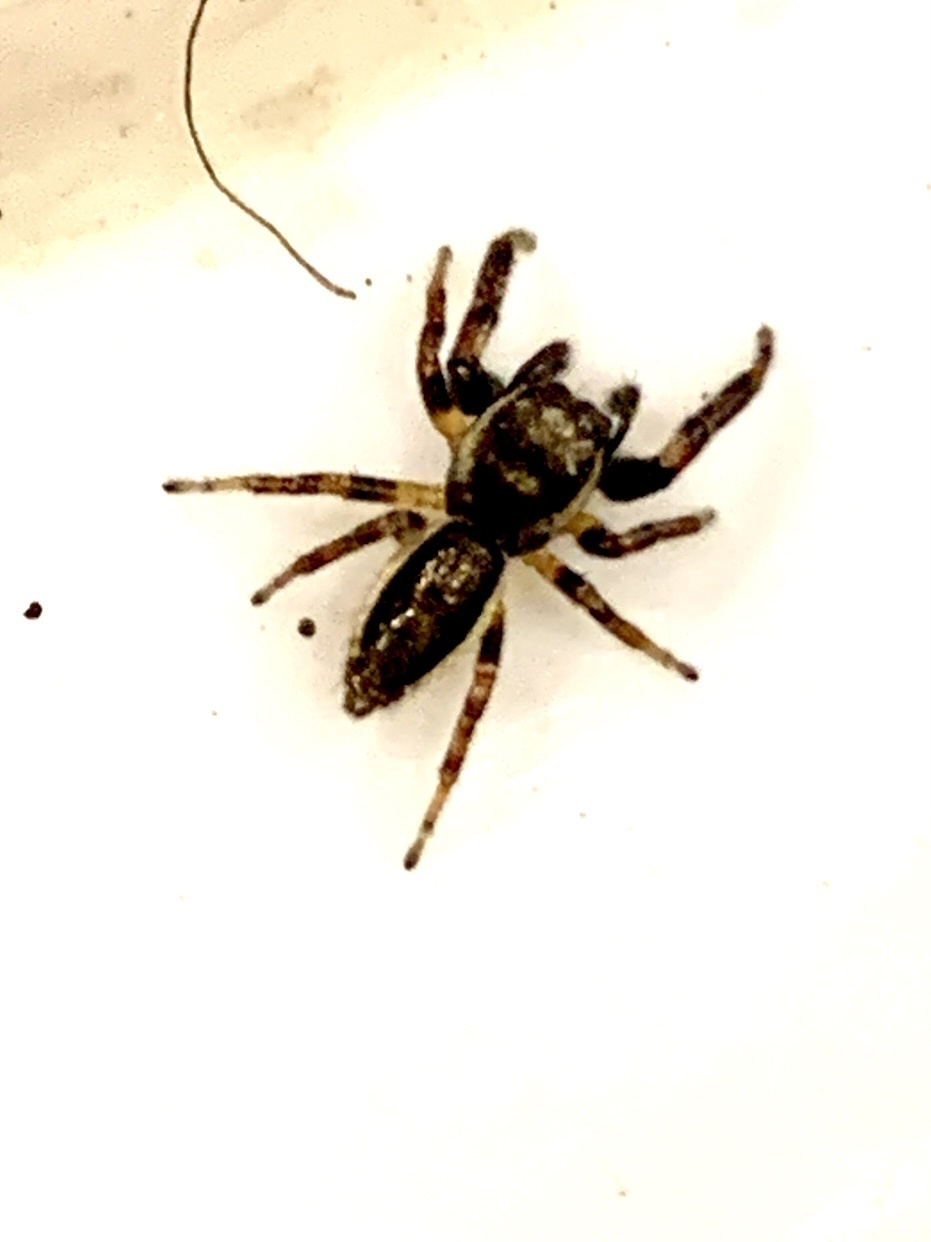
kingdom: Animalia
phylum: Arthropoda
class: Arachnida
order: Araneae
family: Salticidae
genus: Eris
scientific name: Eris militaris
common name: Bronze jumper
